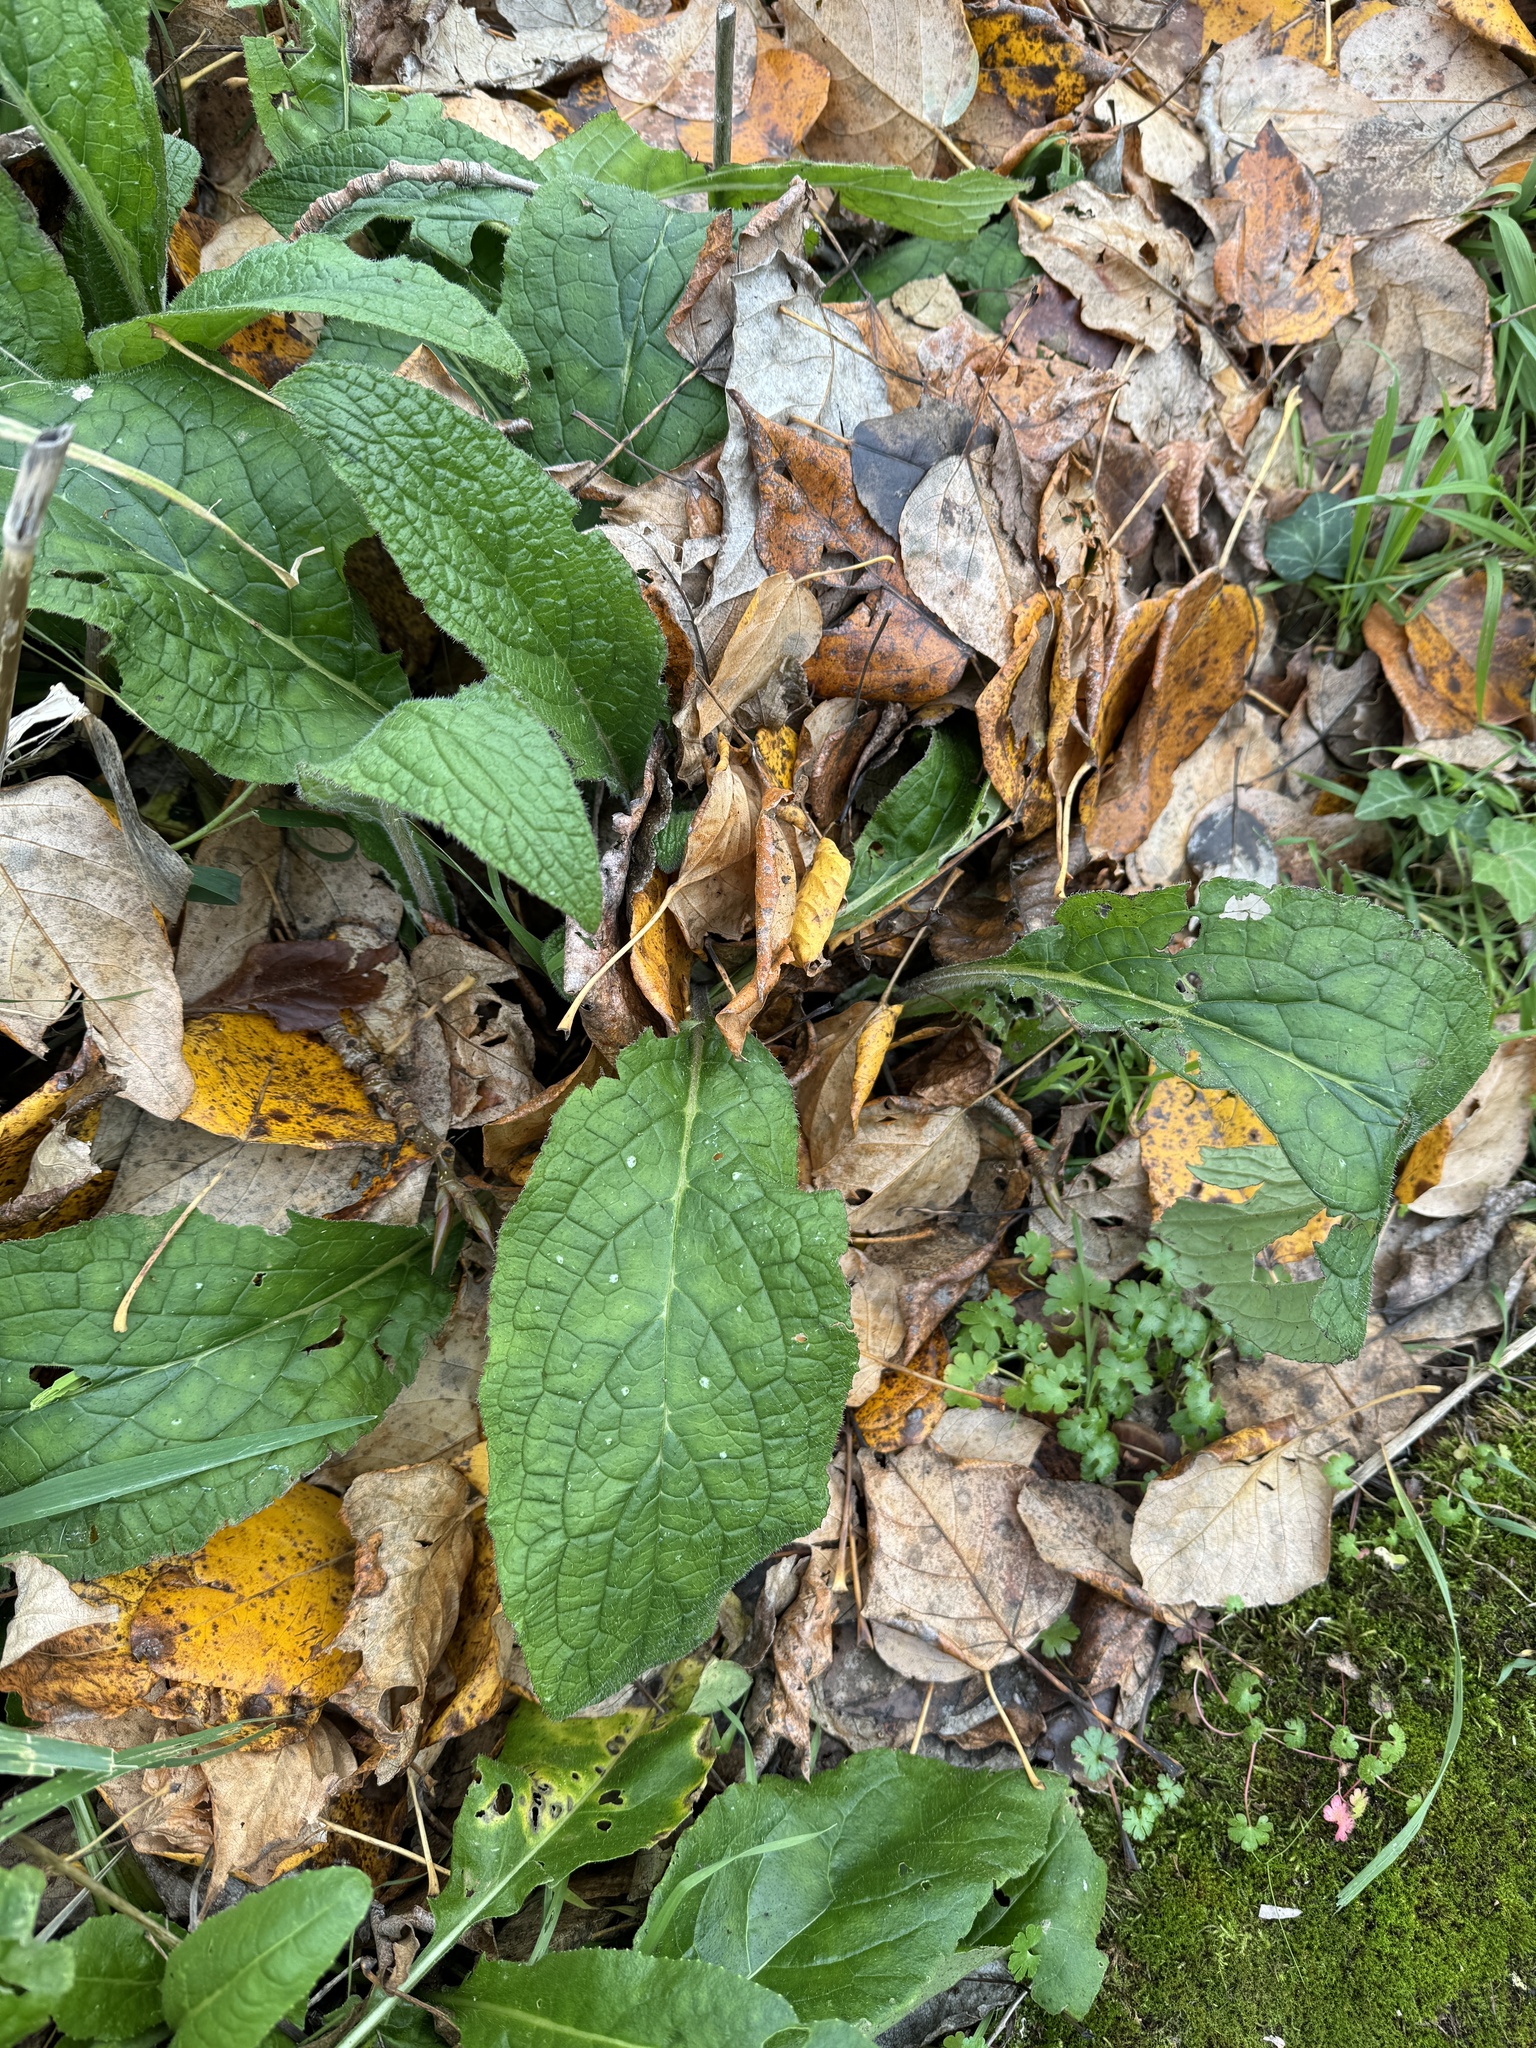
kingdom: Plantae
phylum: Tracheophyta
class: Magnoliopsida
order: Boraginales
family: Boraginaceae
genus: Pentaglottis
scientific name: Pentaglottis sempervirens
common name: Green alkanet
